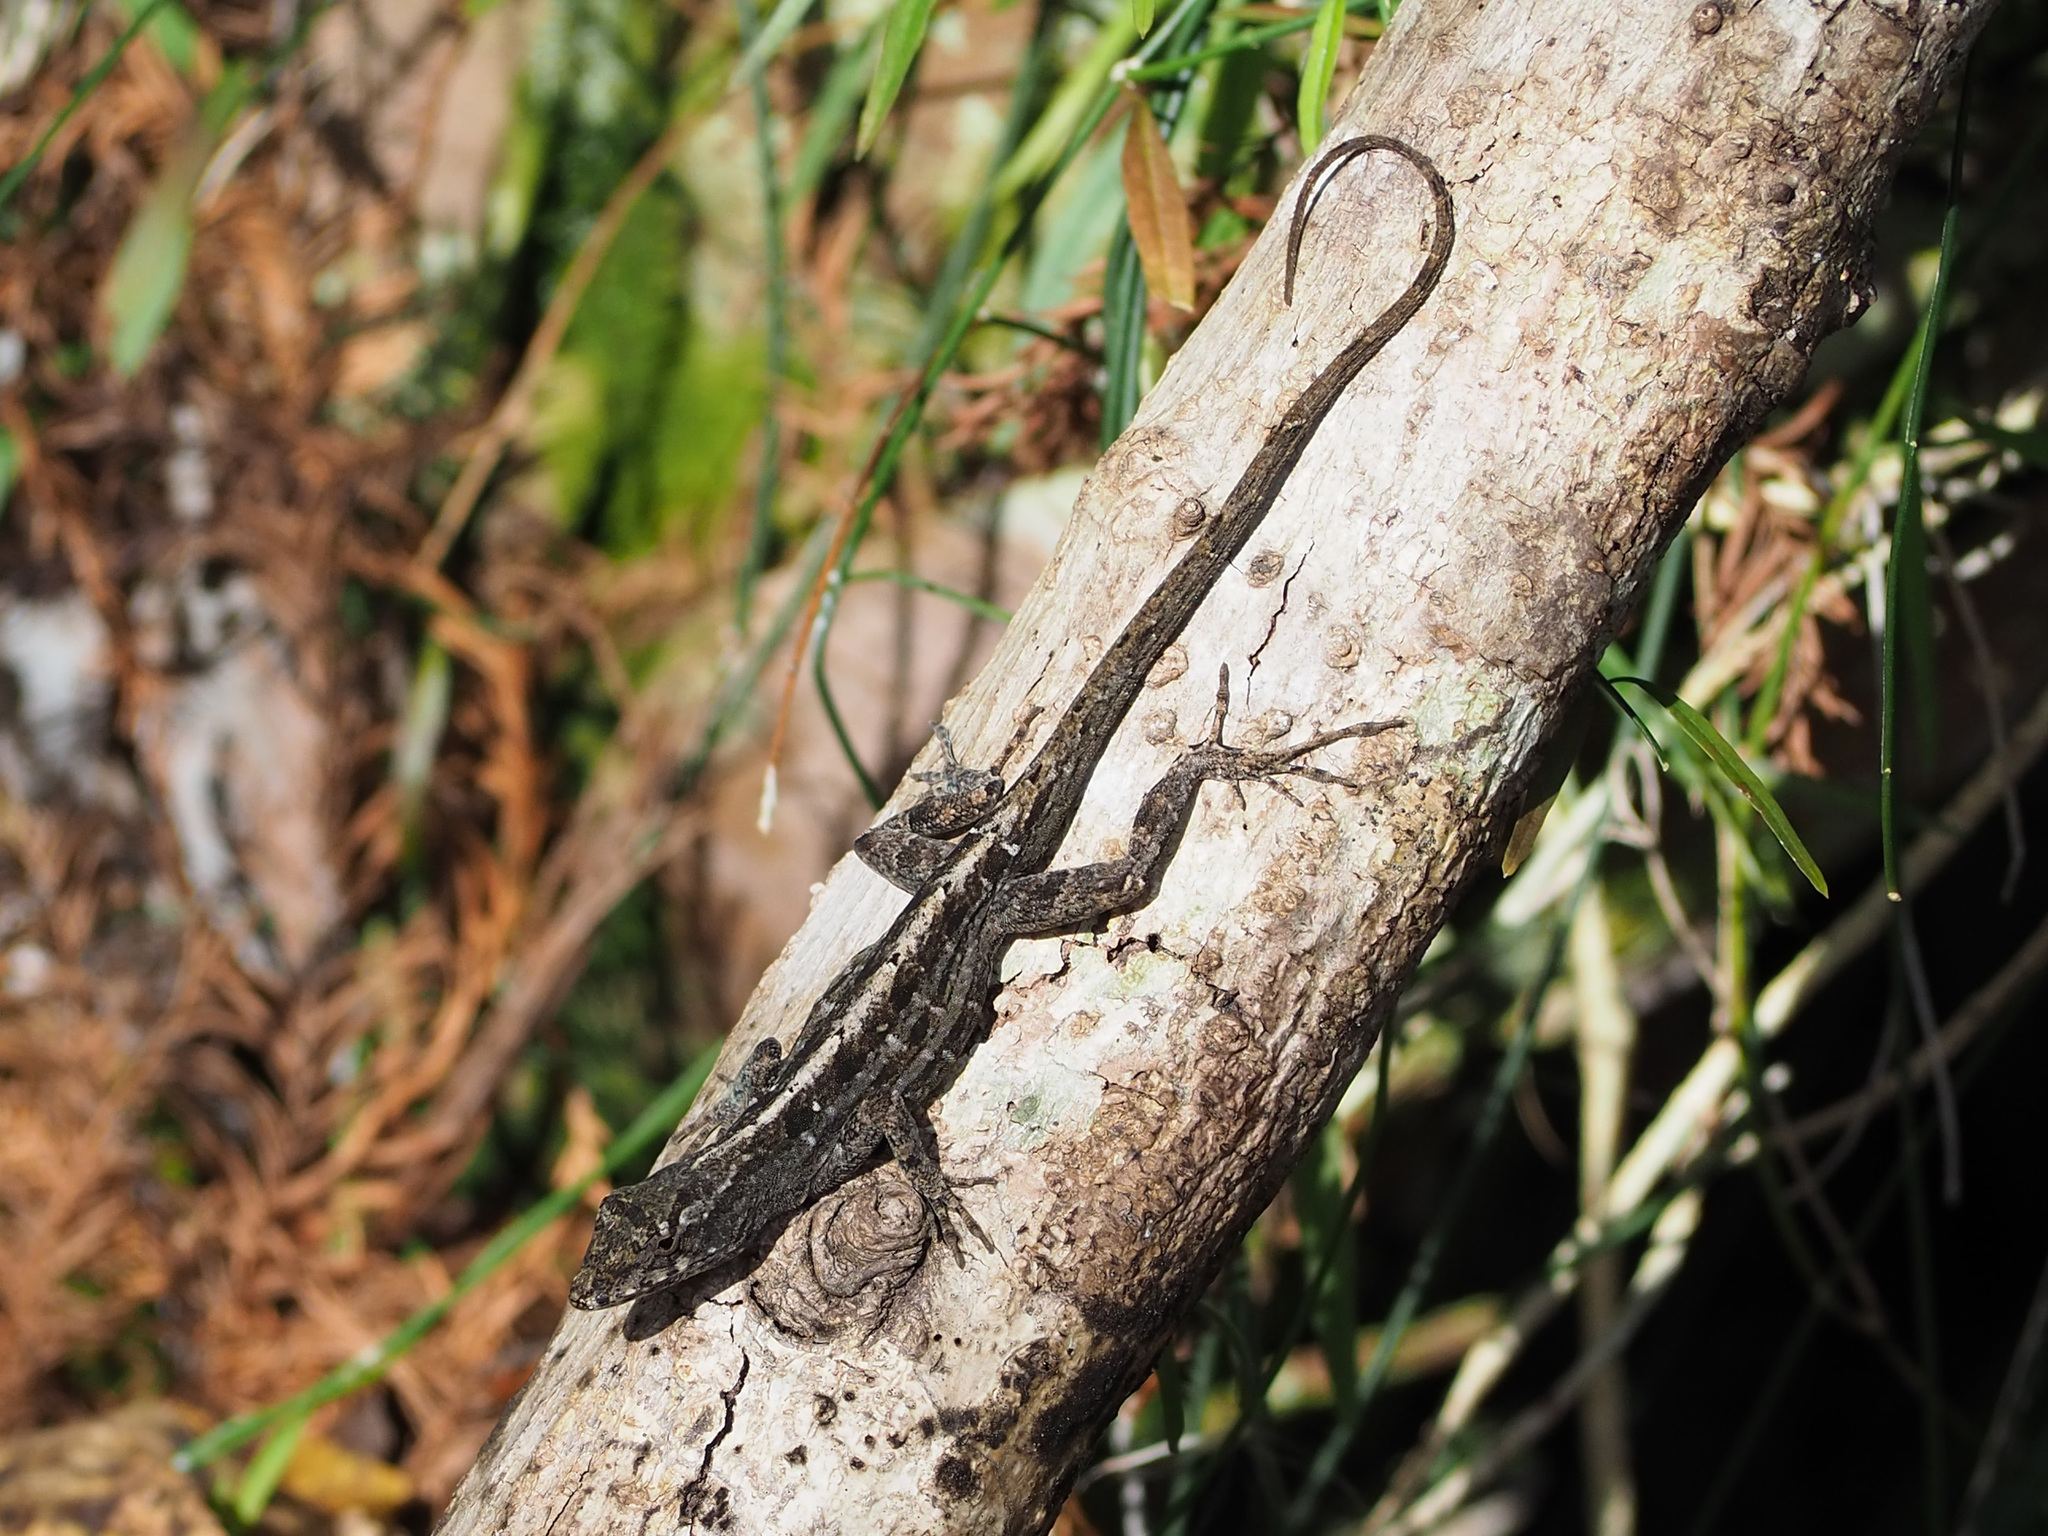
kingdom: Animalia
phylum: Chordata
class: Squamata
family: Dactyloidae
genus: Anolis
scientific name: Anolis sagrei
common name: Brown anole
